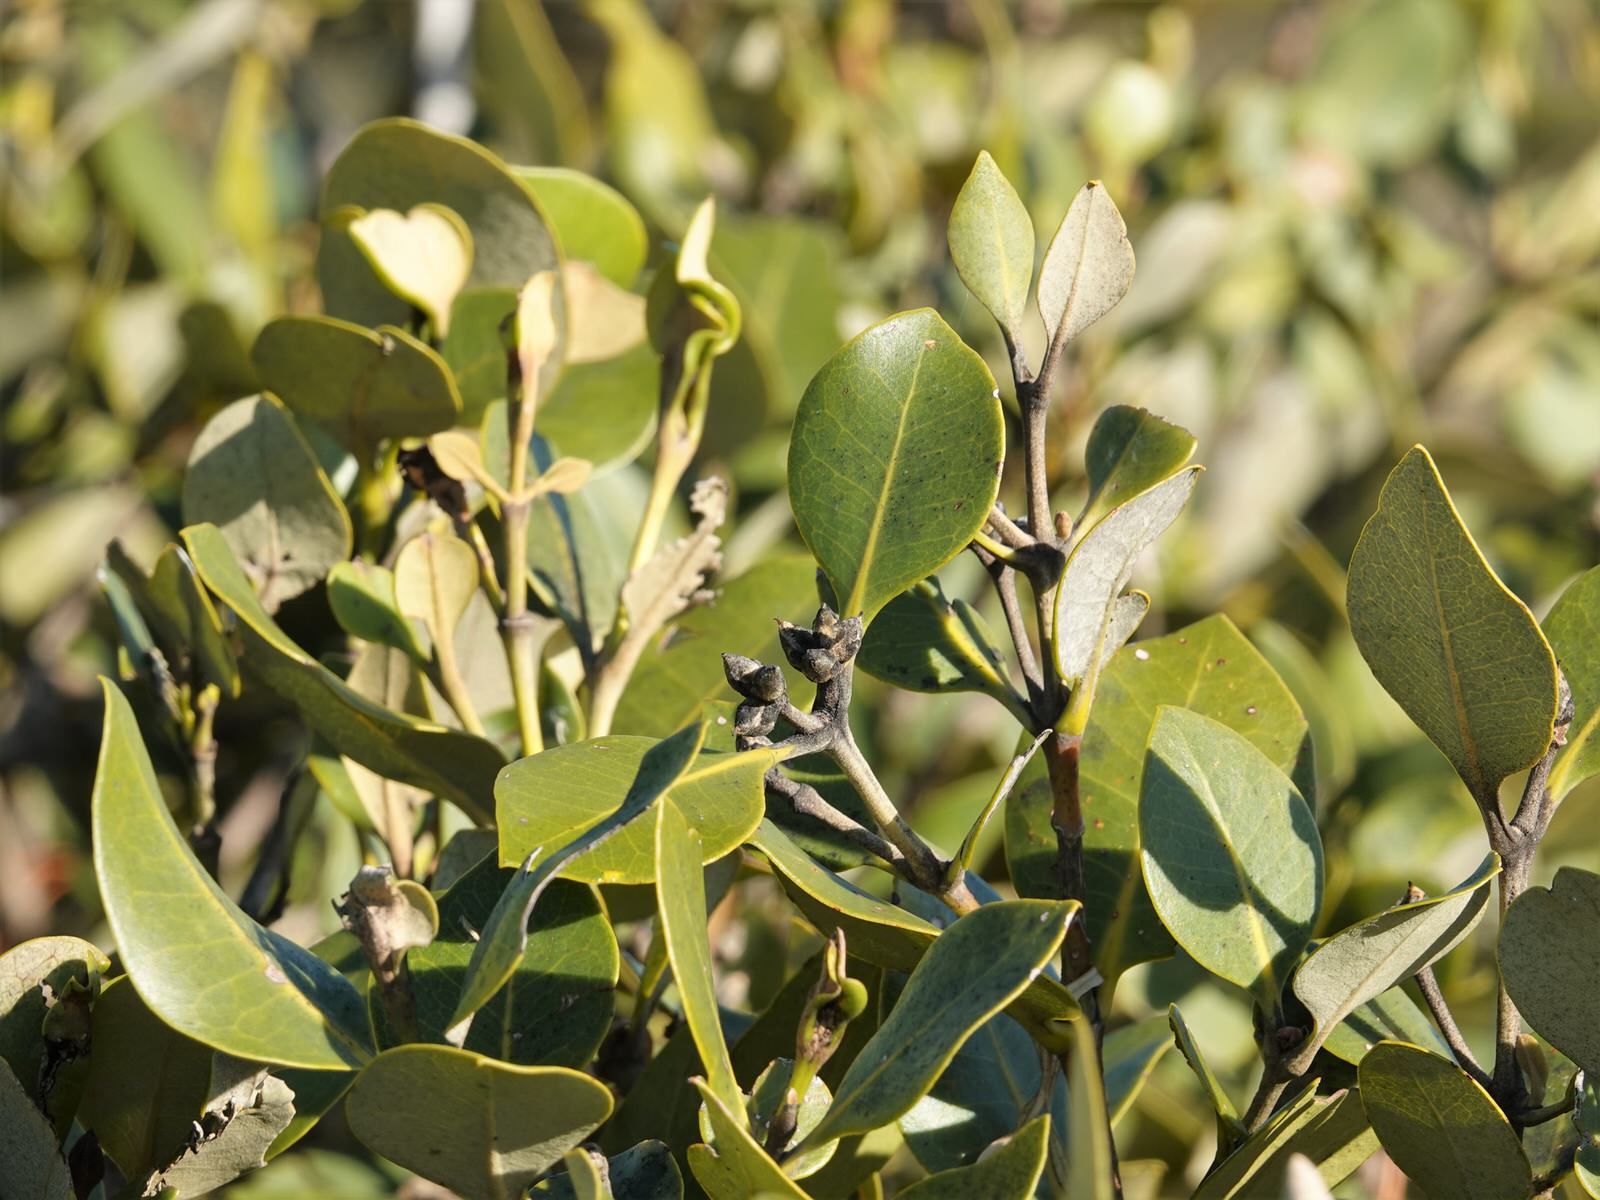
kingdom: Plantae
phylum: Tracheophyta
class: Magnoliopsida
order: Lamiales
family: Acanthaceae
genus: Avicennia
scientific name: Avicennia marina
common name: Gray mangrove
